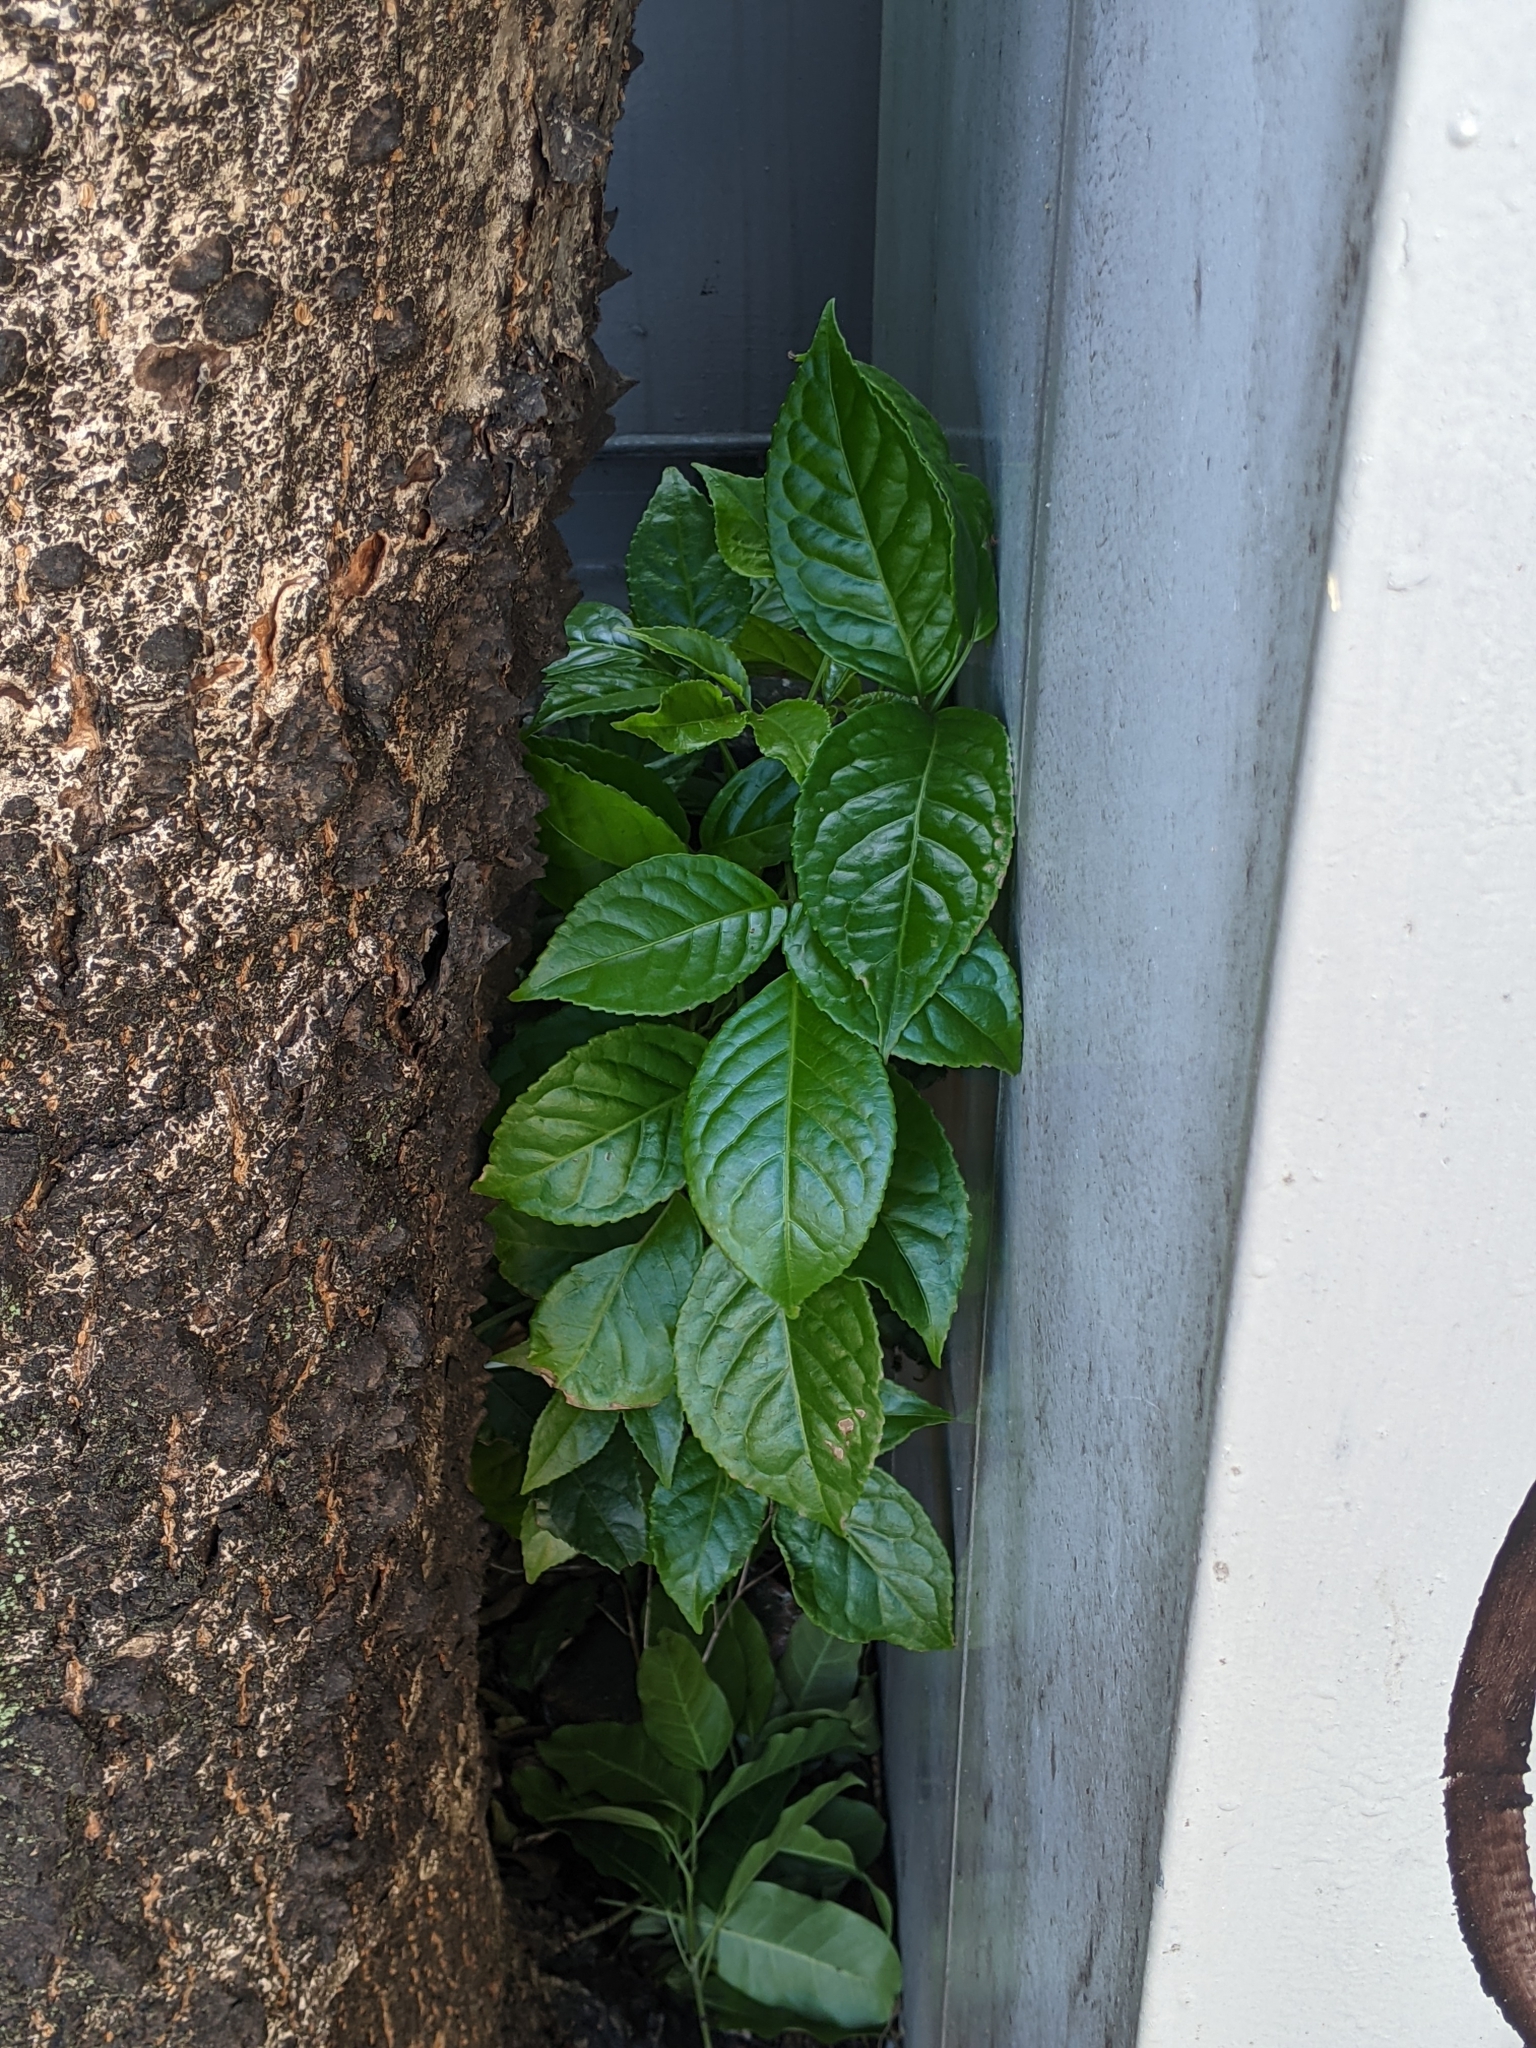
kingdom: Plantae
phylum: Tracheophyta
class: Magnoliopsida
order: Malpighiales
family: Phyllanthaceae
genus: Bischofia
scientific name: Bischofia javanica
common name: Javanese bishopwood
